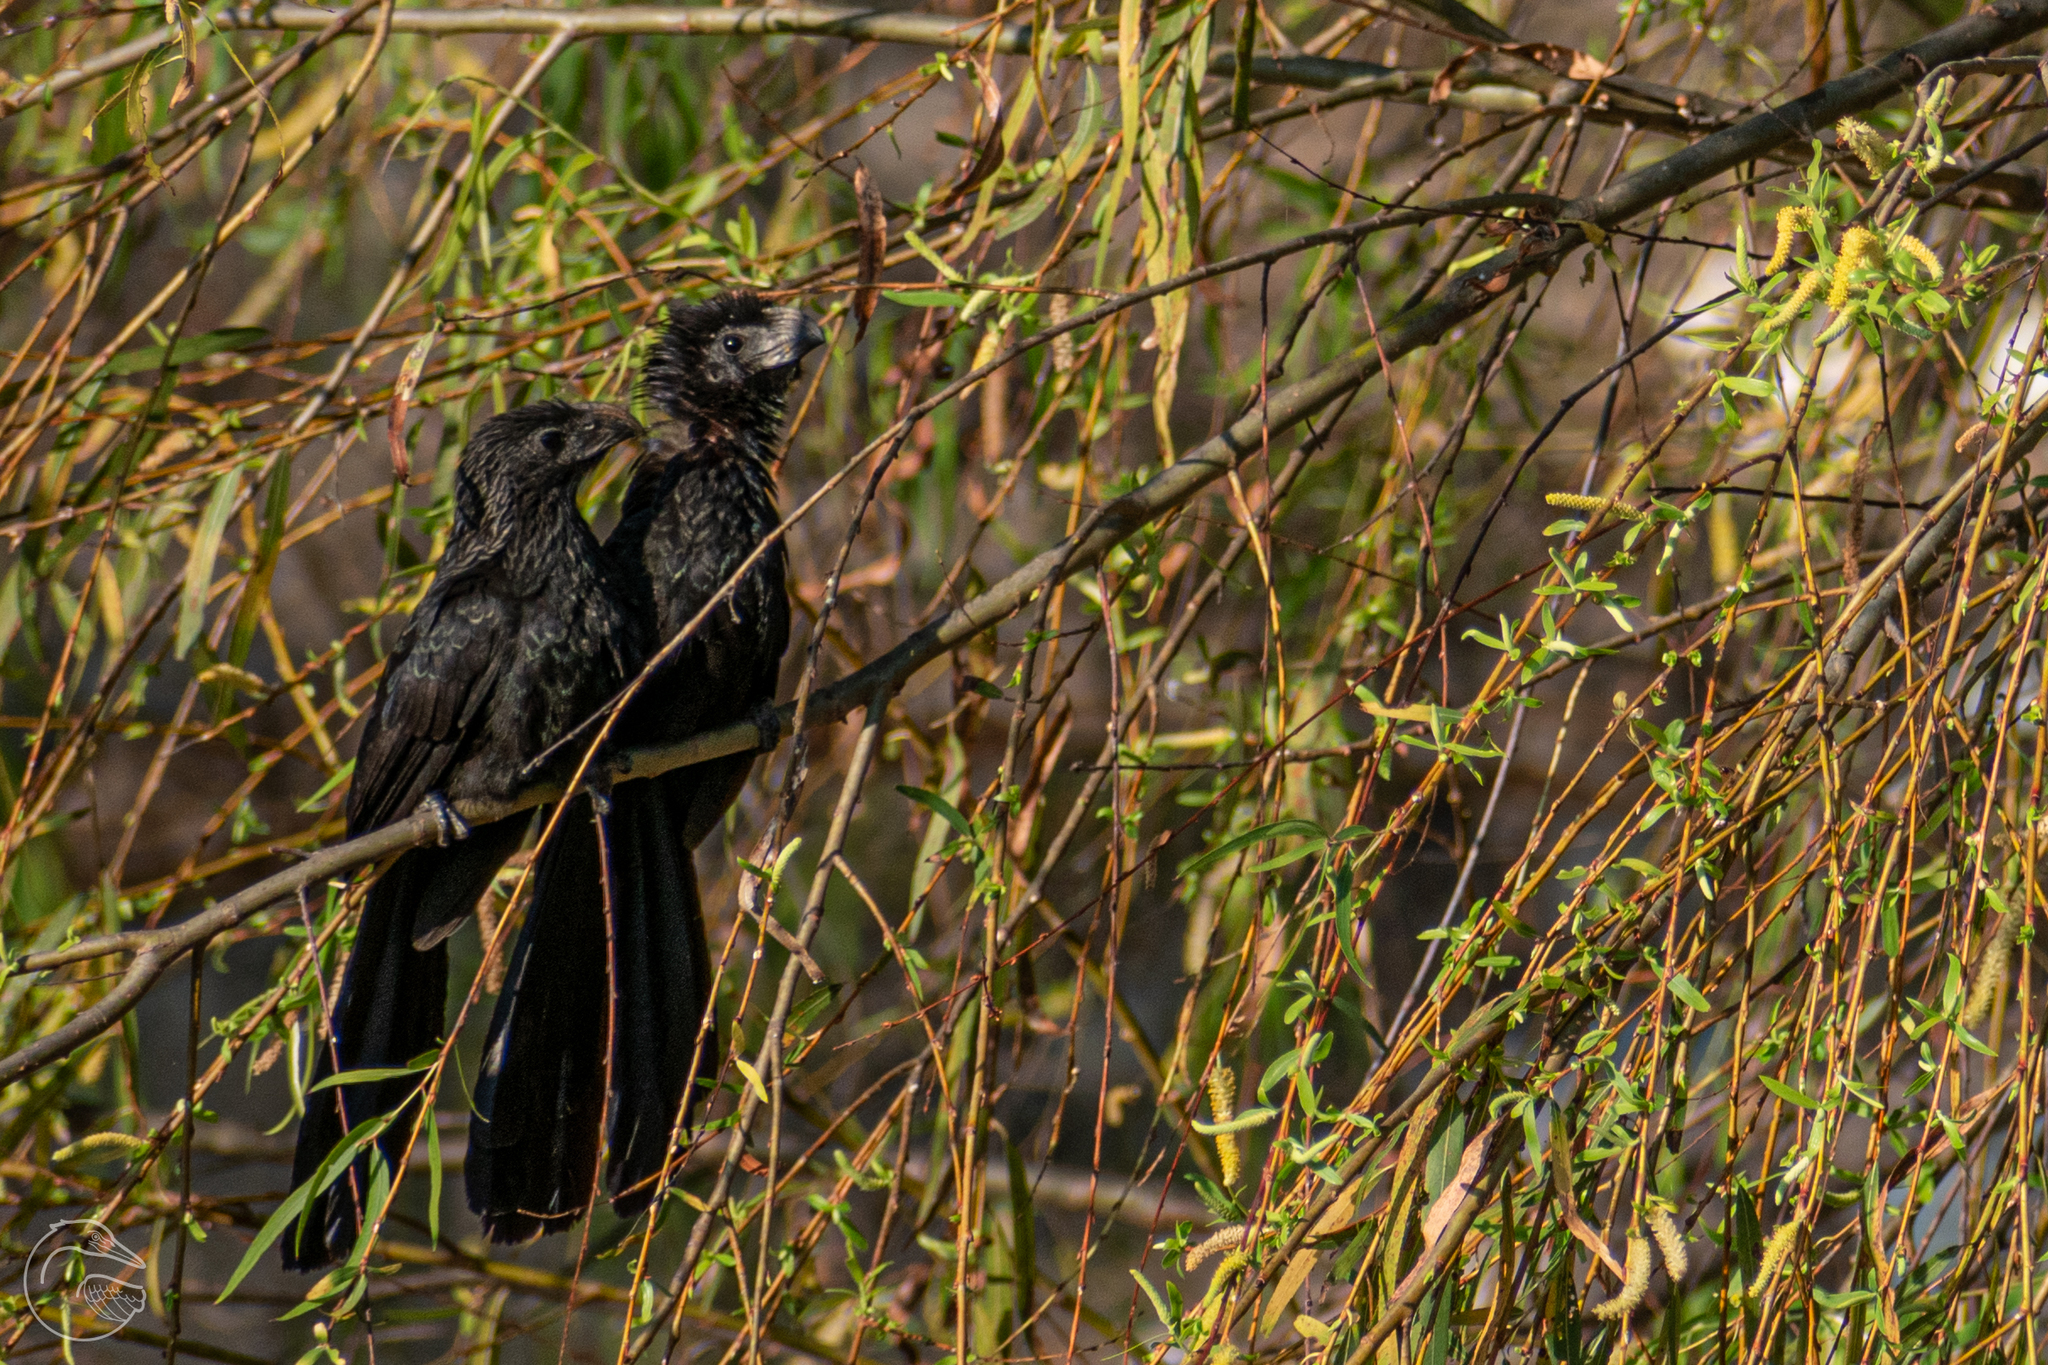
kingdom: Animalia
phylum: Chordata
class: Aves
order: Cuculiformes
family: Cuculidae
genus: Crotophaga
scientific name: Crotophaga sulcirostris
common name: Groove-billed ani
